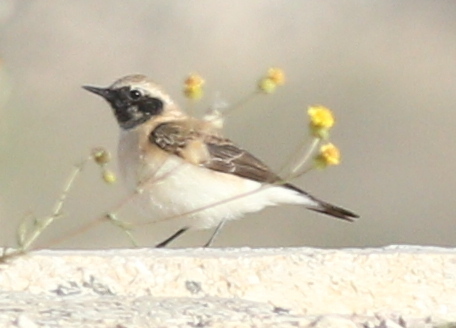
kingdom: Animalia
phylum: Chordata
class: Aves
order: Passeriformes
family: Muscicapidae
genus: Oenanthe
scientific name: Oenanthe hispanica
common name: Black-eared wheatear
